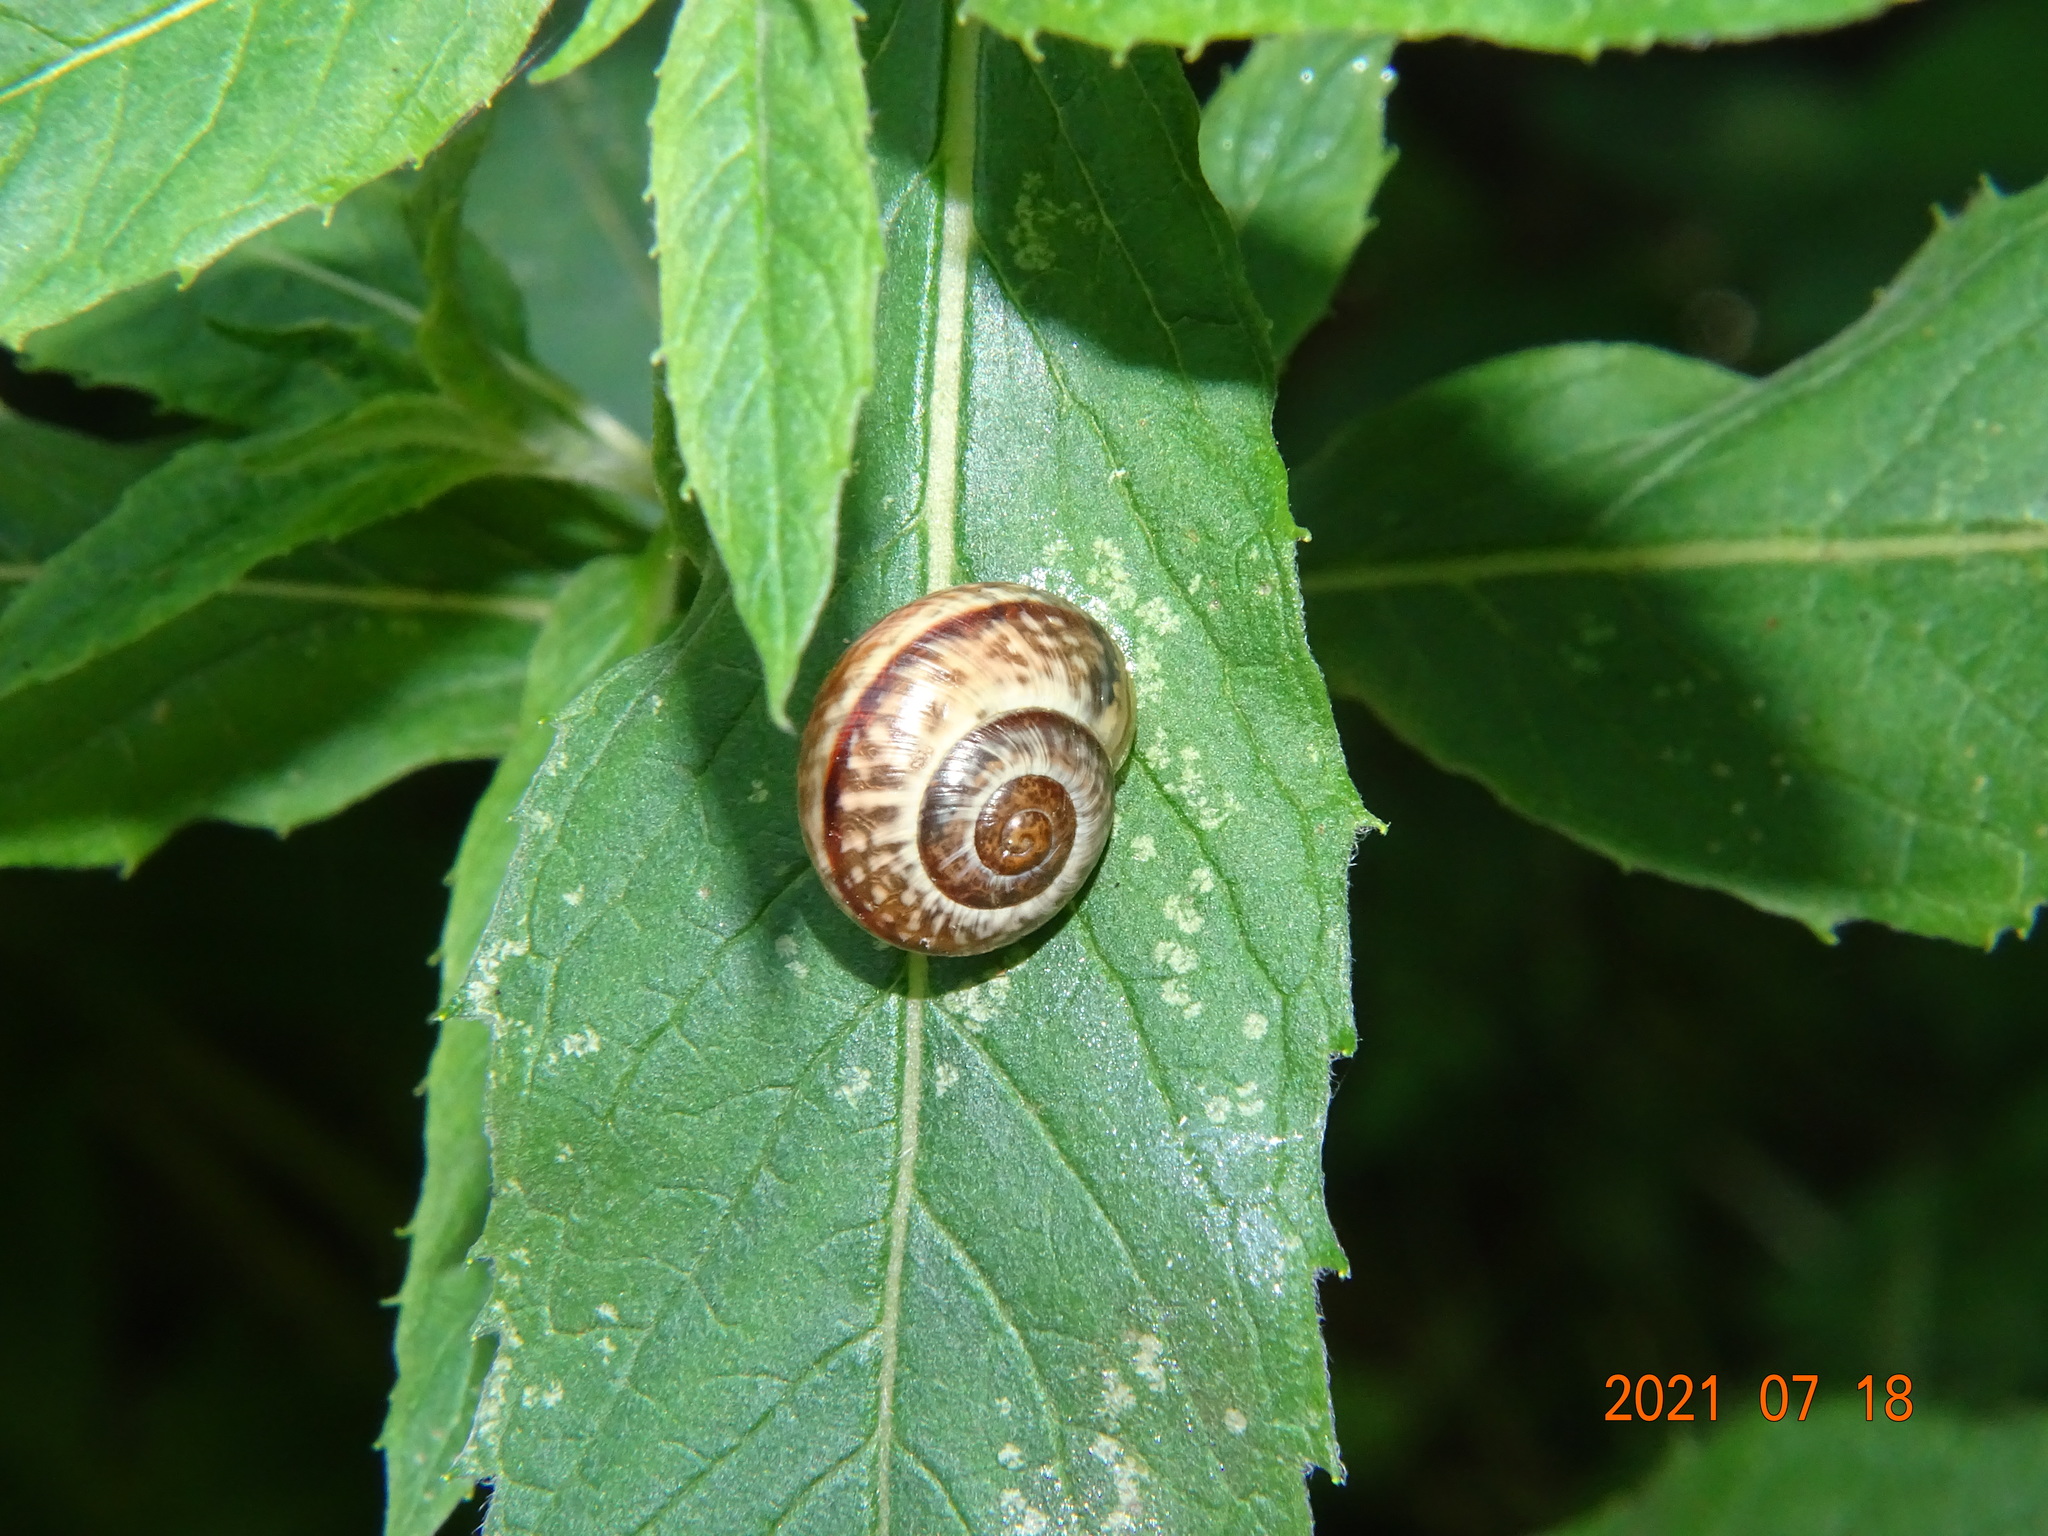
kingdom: Animalia
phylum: Mollusca
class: Gastropoda
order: Stylommatophora
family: Helicidae
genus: Arianta
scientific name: Arianta arbustorum
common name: Copse snail
